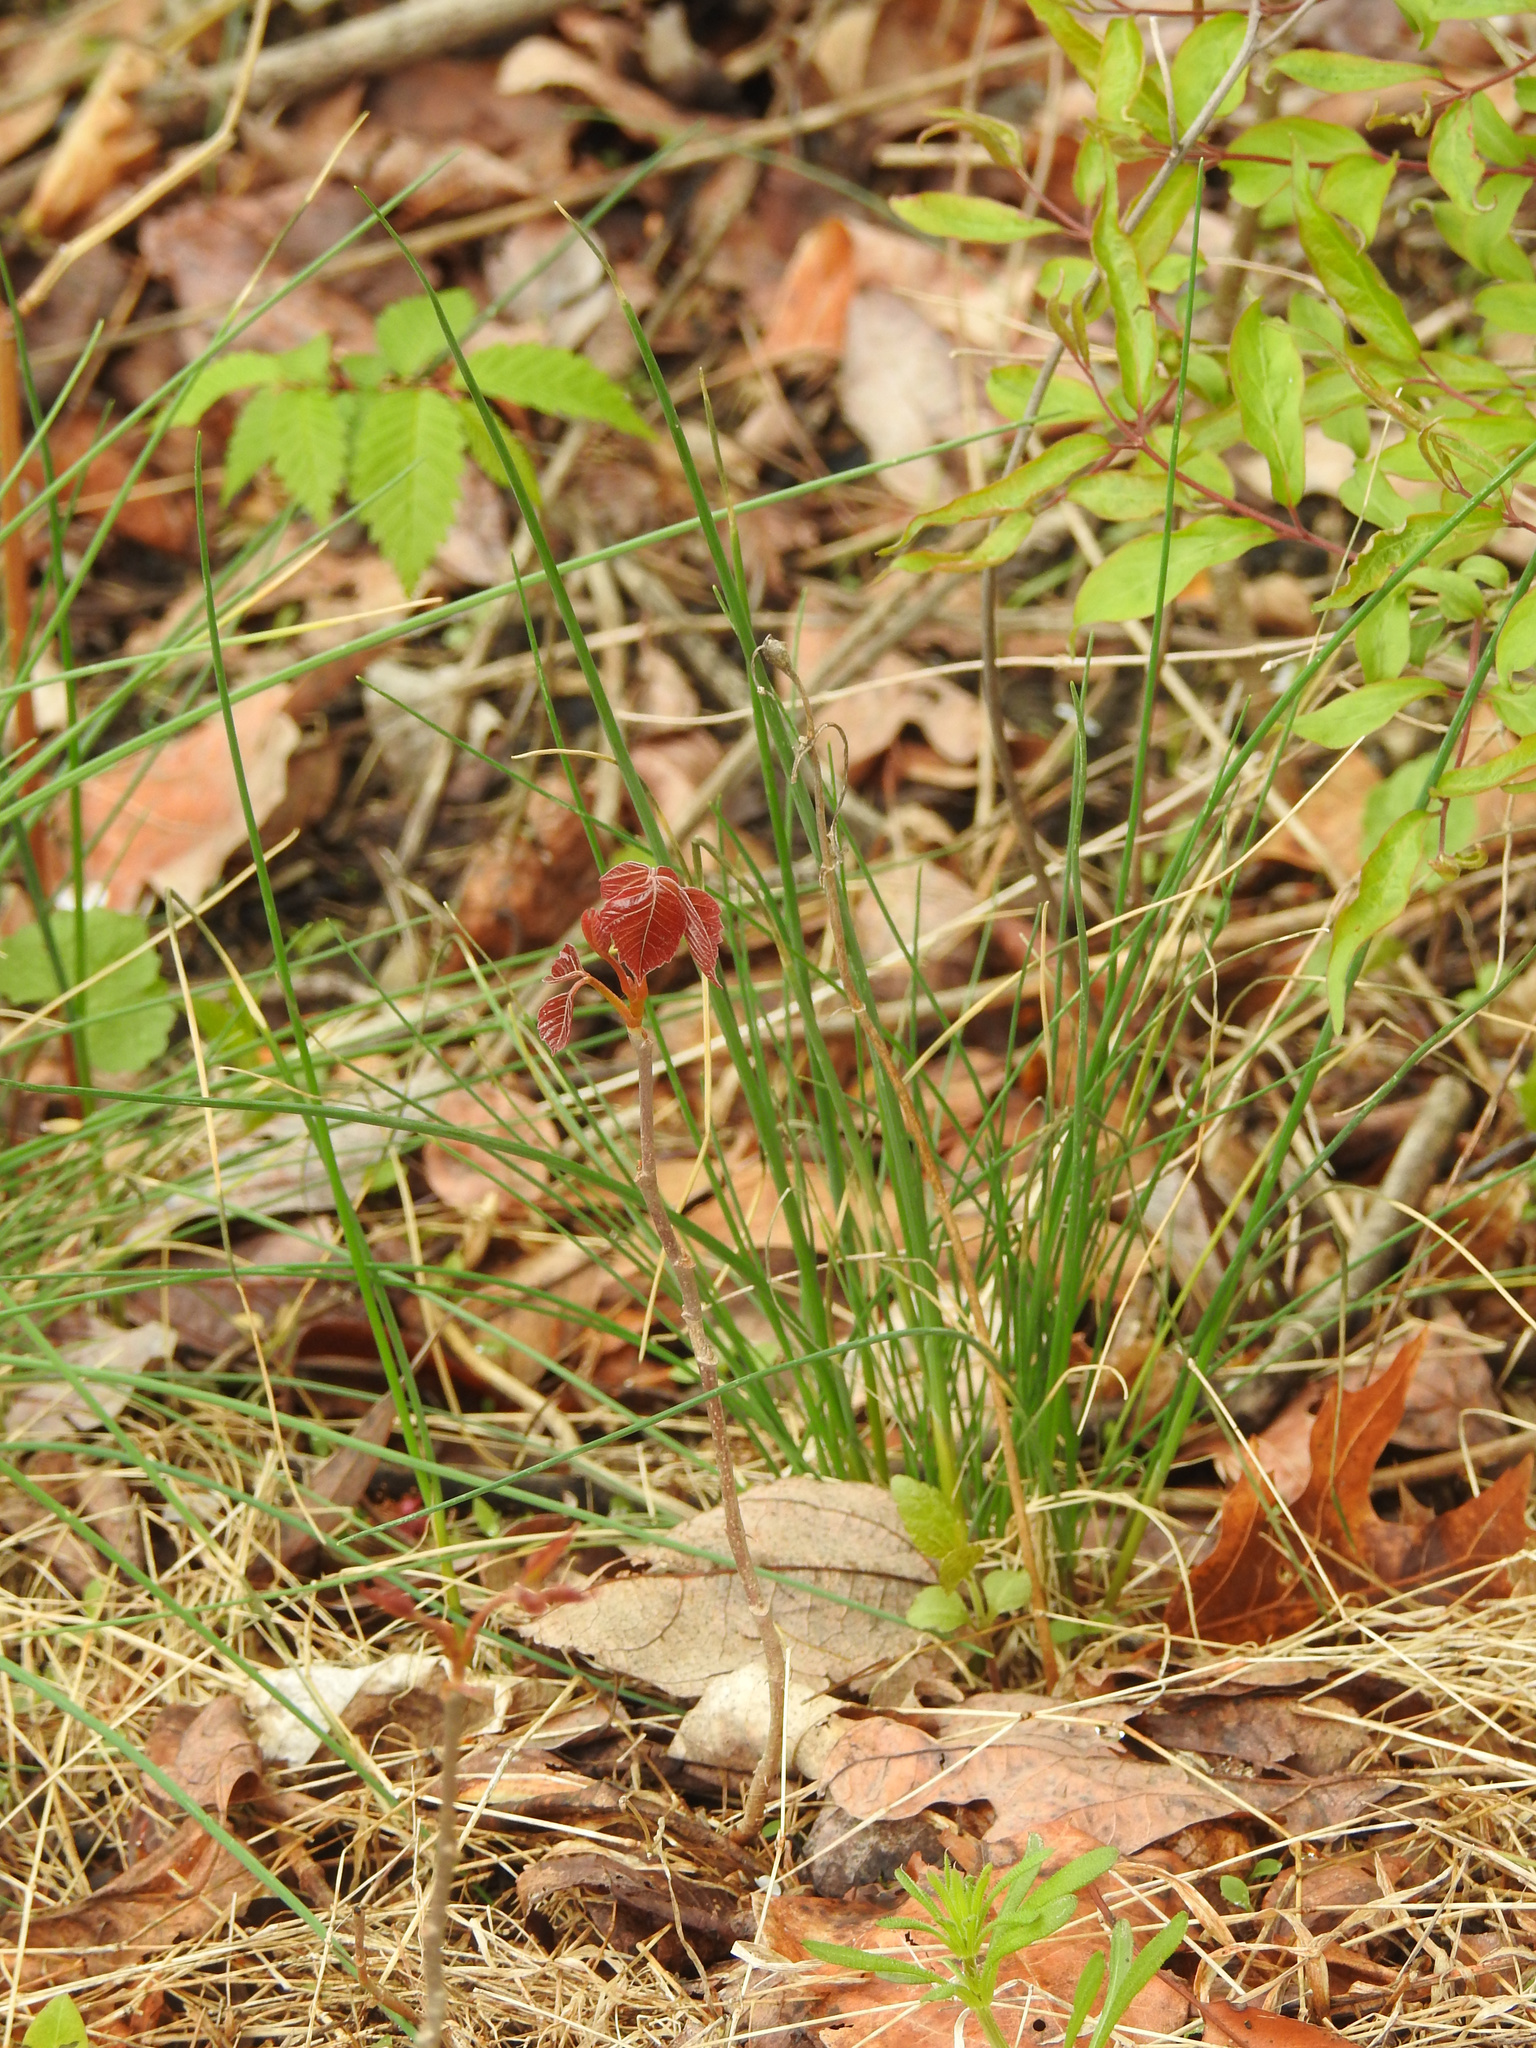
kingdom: Plantae
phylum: Tracheophyta
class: Liliopsida
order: Asparagales
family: Amaryllidaceae
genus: Allium
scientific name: Allium vineale
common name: Crow garlic
